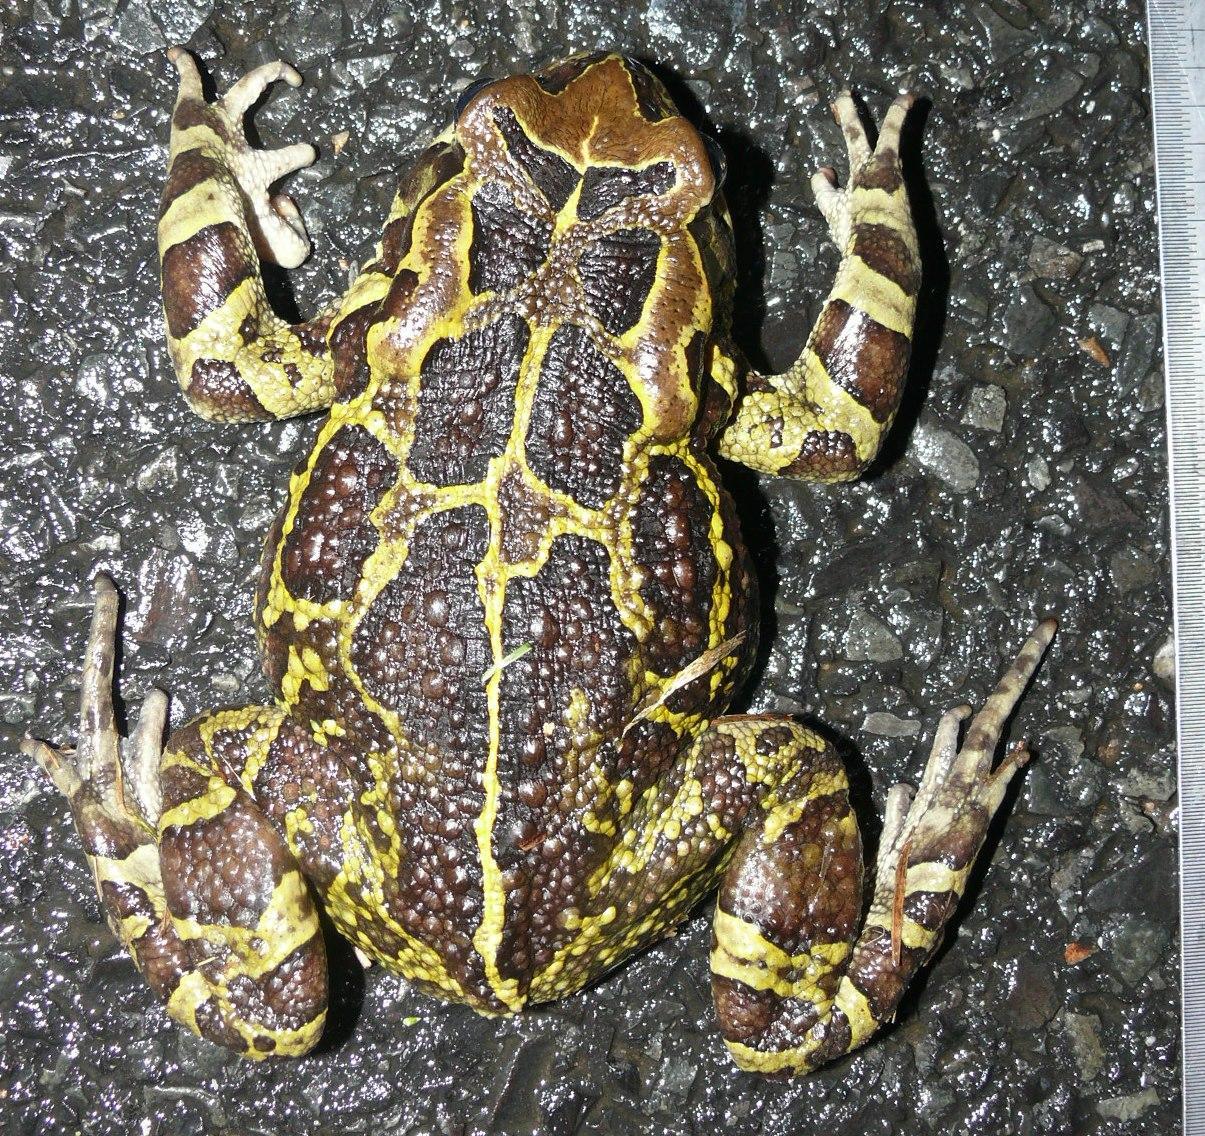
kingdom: Animalia
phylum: Chordata
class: Amphibia
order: Anura
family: Bufonidae
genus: Sclerophrys
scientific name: Sclerophrys pantherina
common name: Panther toad
